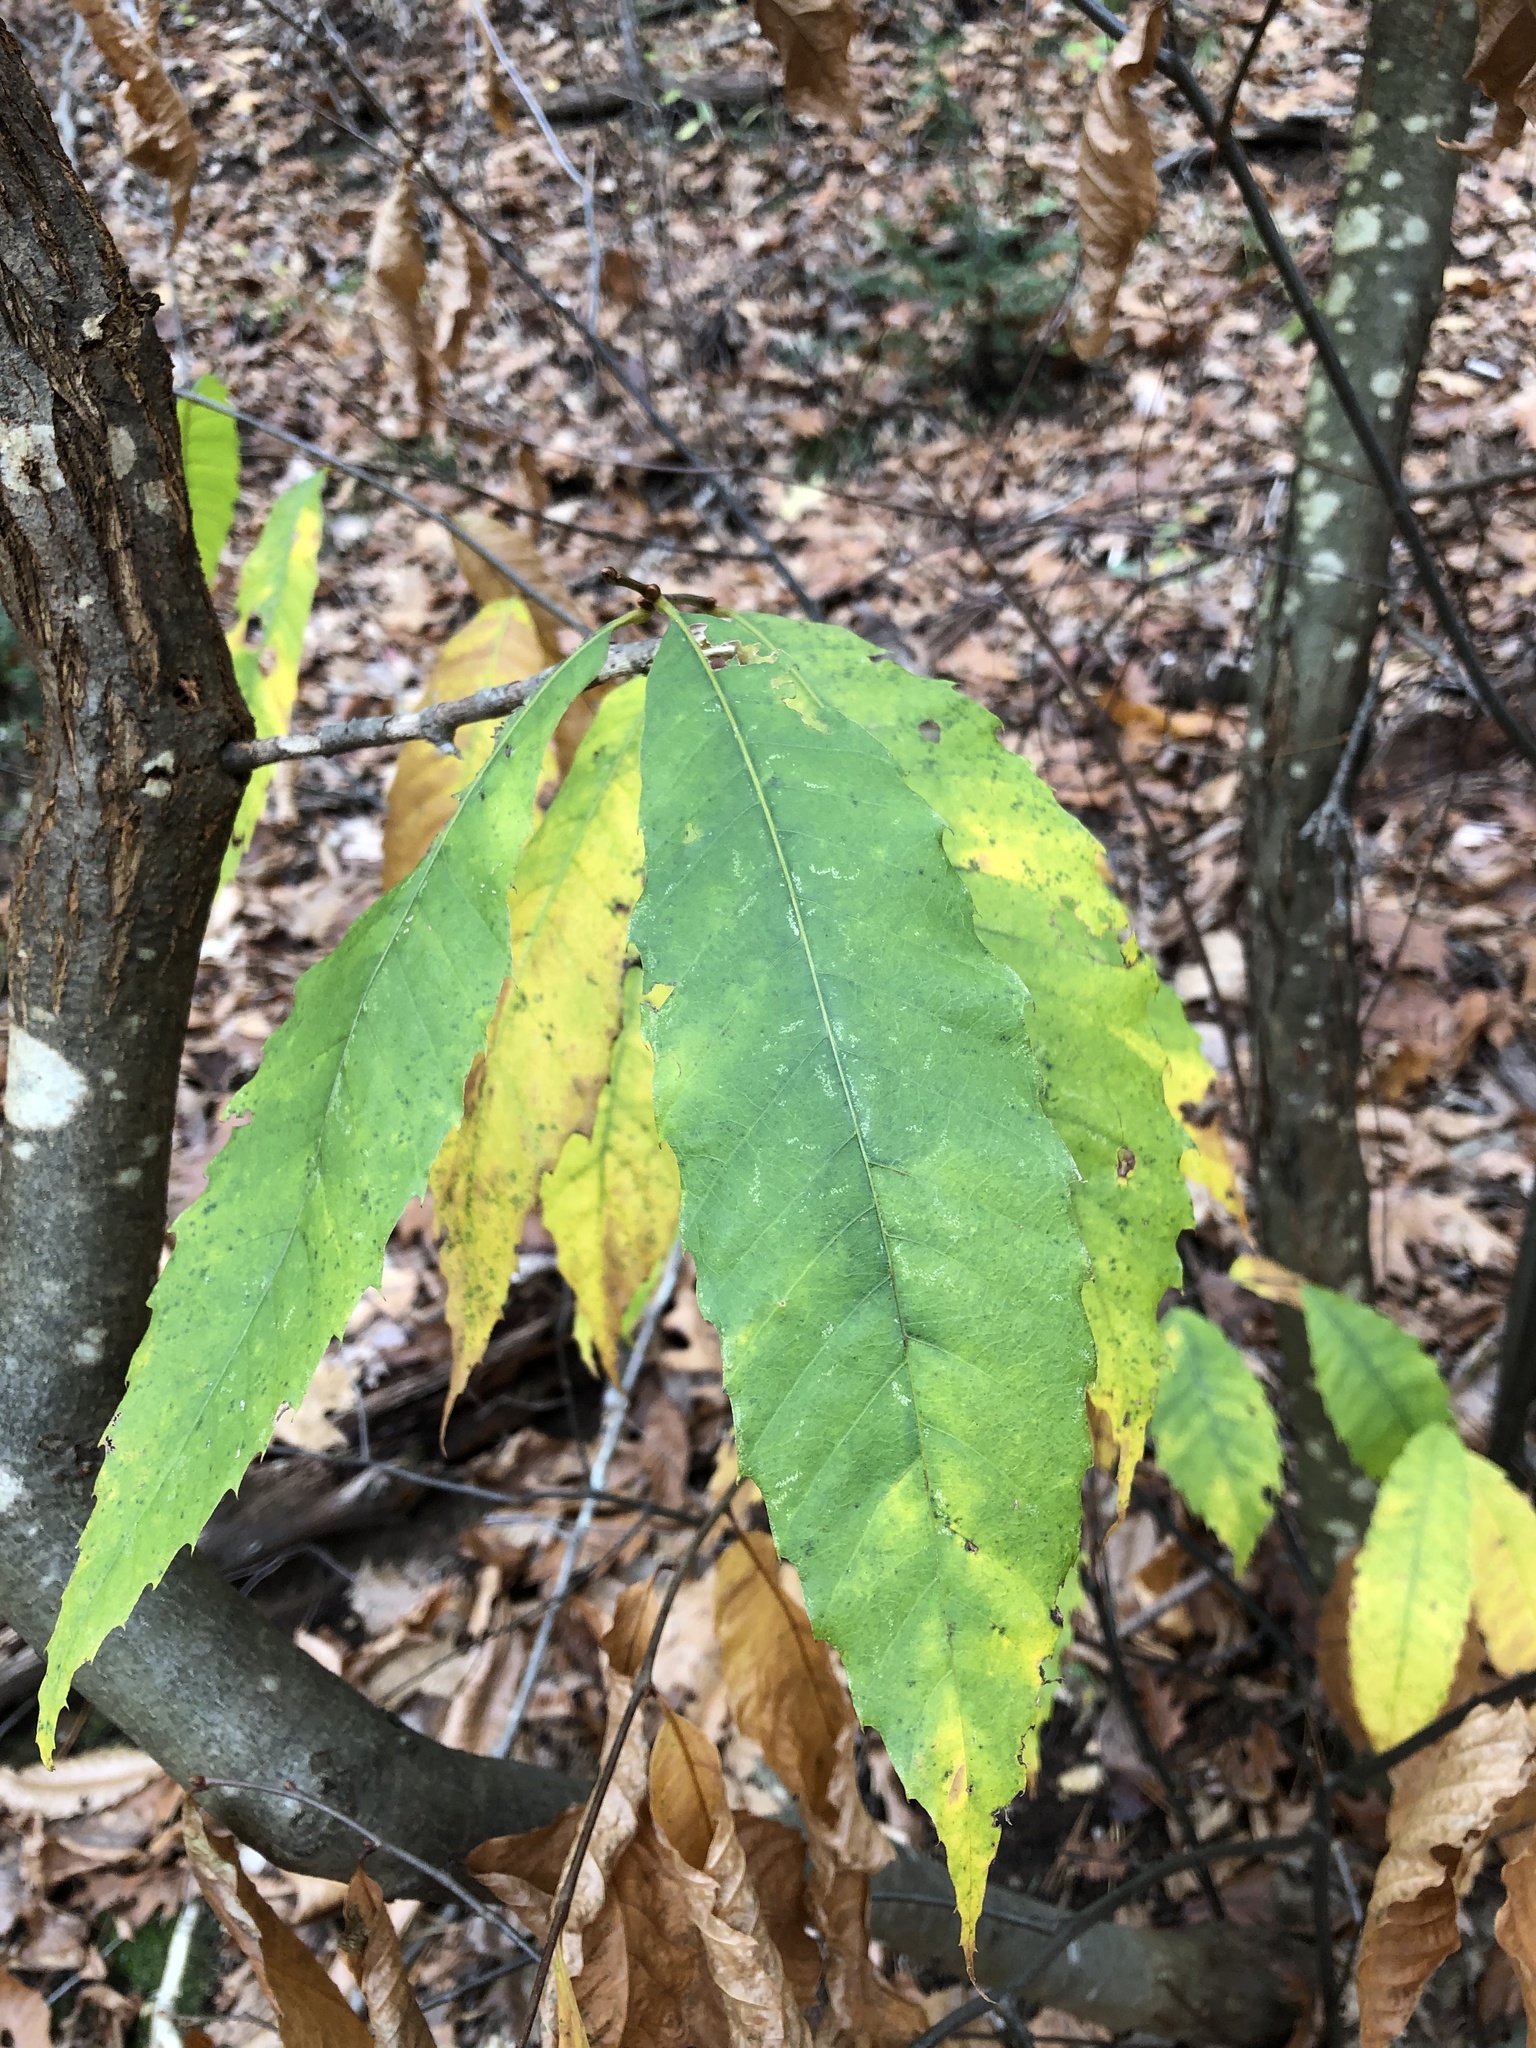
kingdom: Plantae
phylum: Tracheophyta
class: Magnoliopsida
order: Fagales
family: Fagaceae
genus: Castanea
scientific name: Castanea dentata
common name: American chestnut
